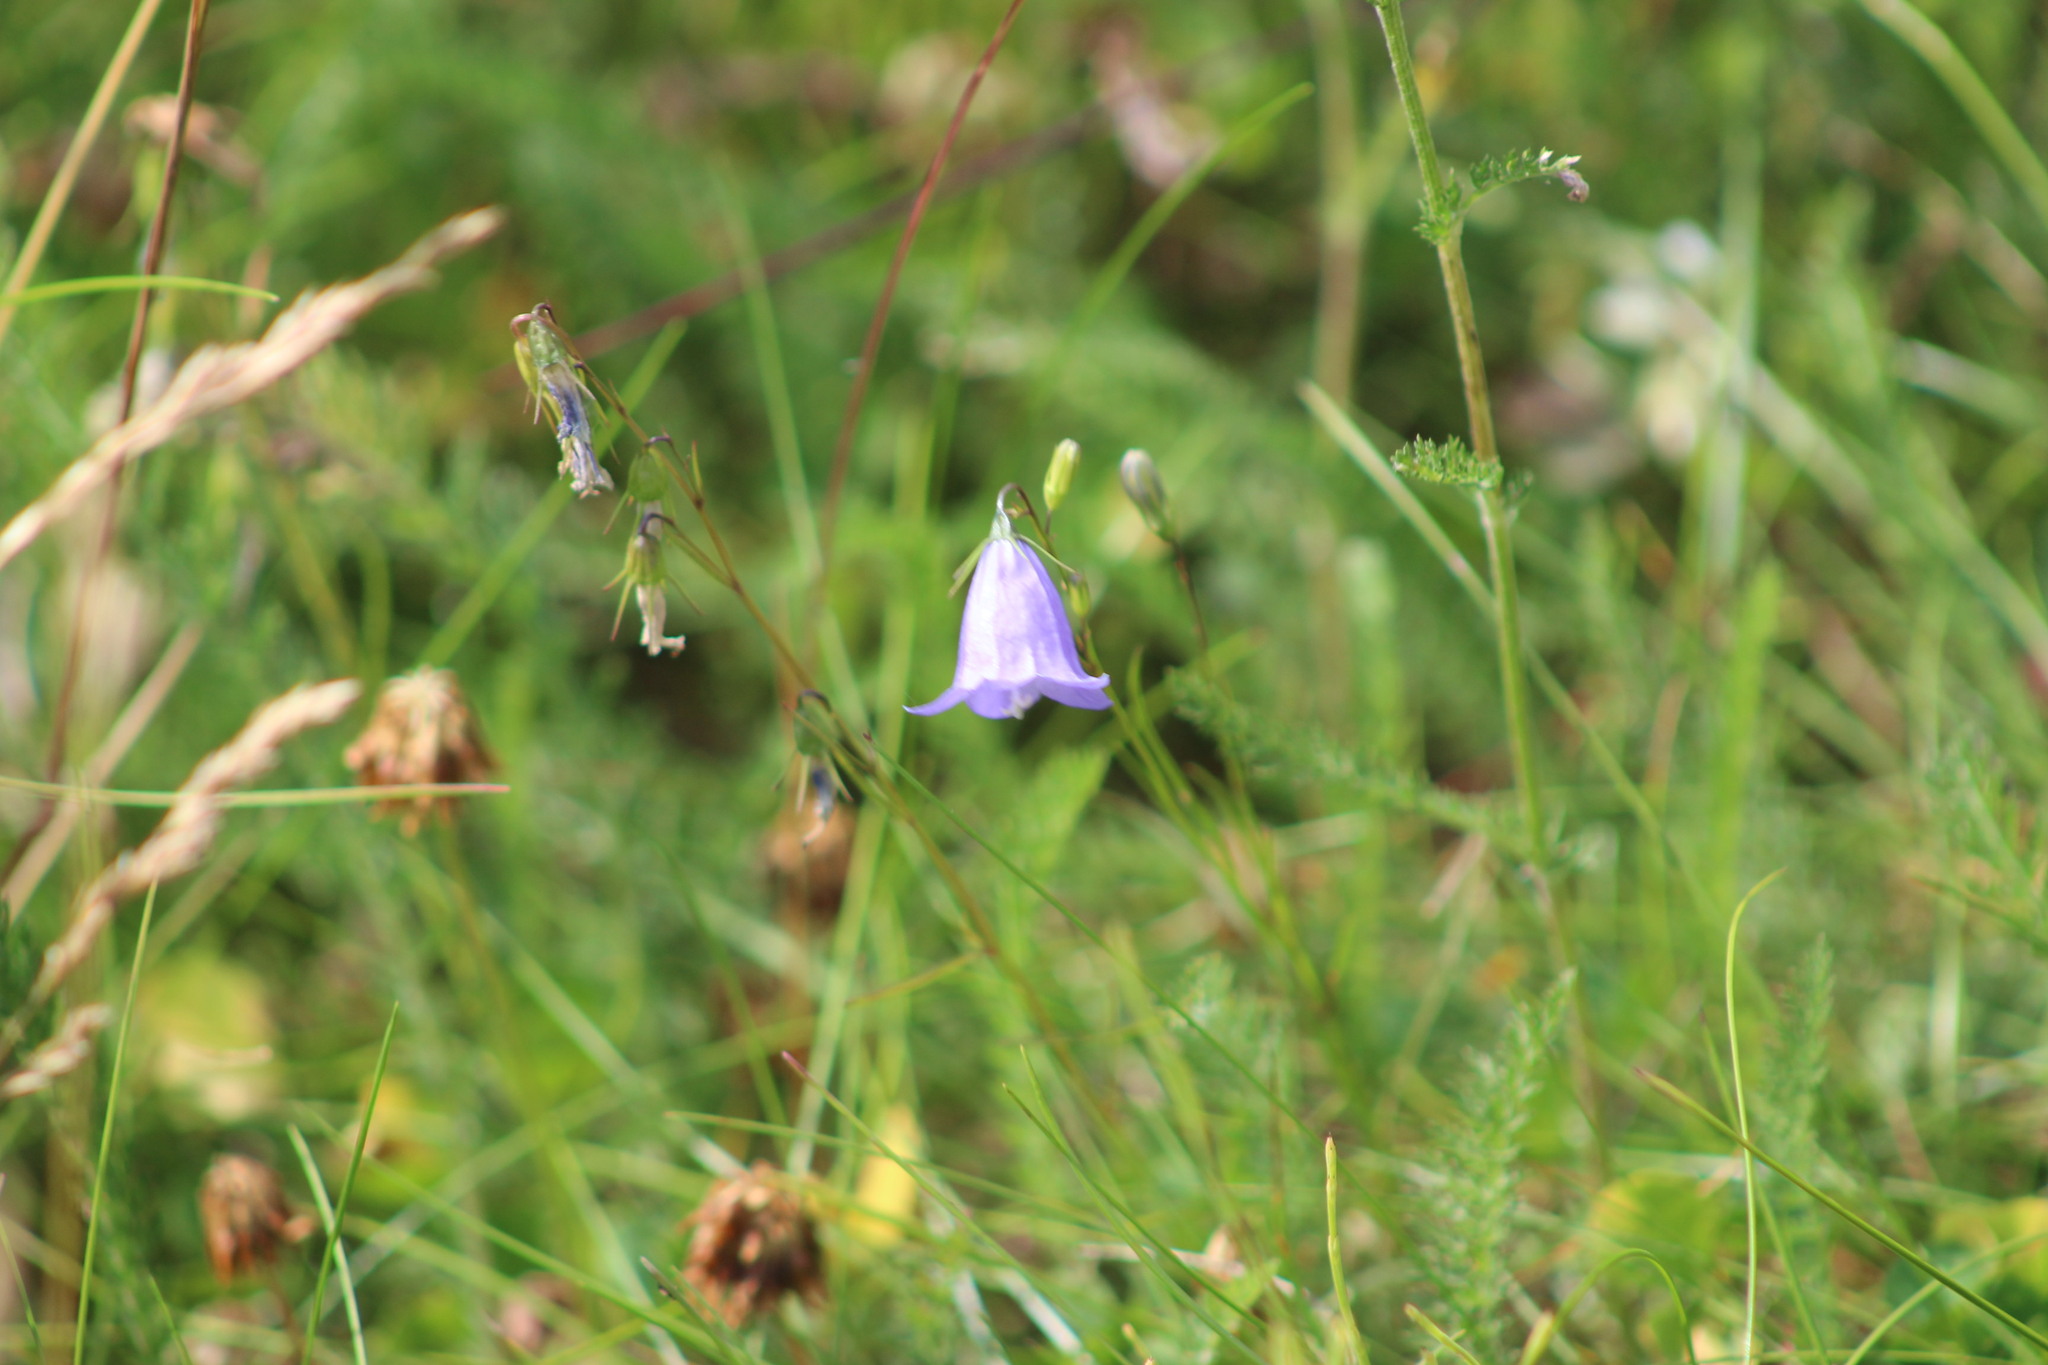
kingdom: Plantae
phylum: Tracheophyta
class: Magnoliopsida
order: Asterales
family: Campanulaceae
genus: Campanula
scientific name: Campanula rotundifolia
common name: Harebell
